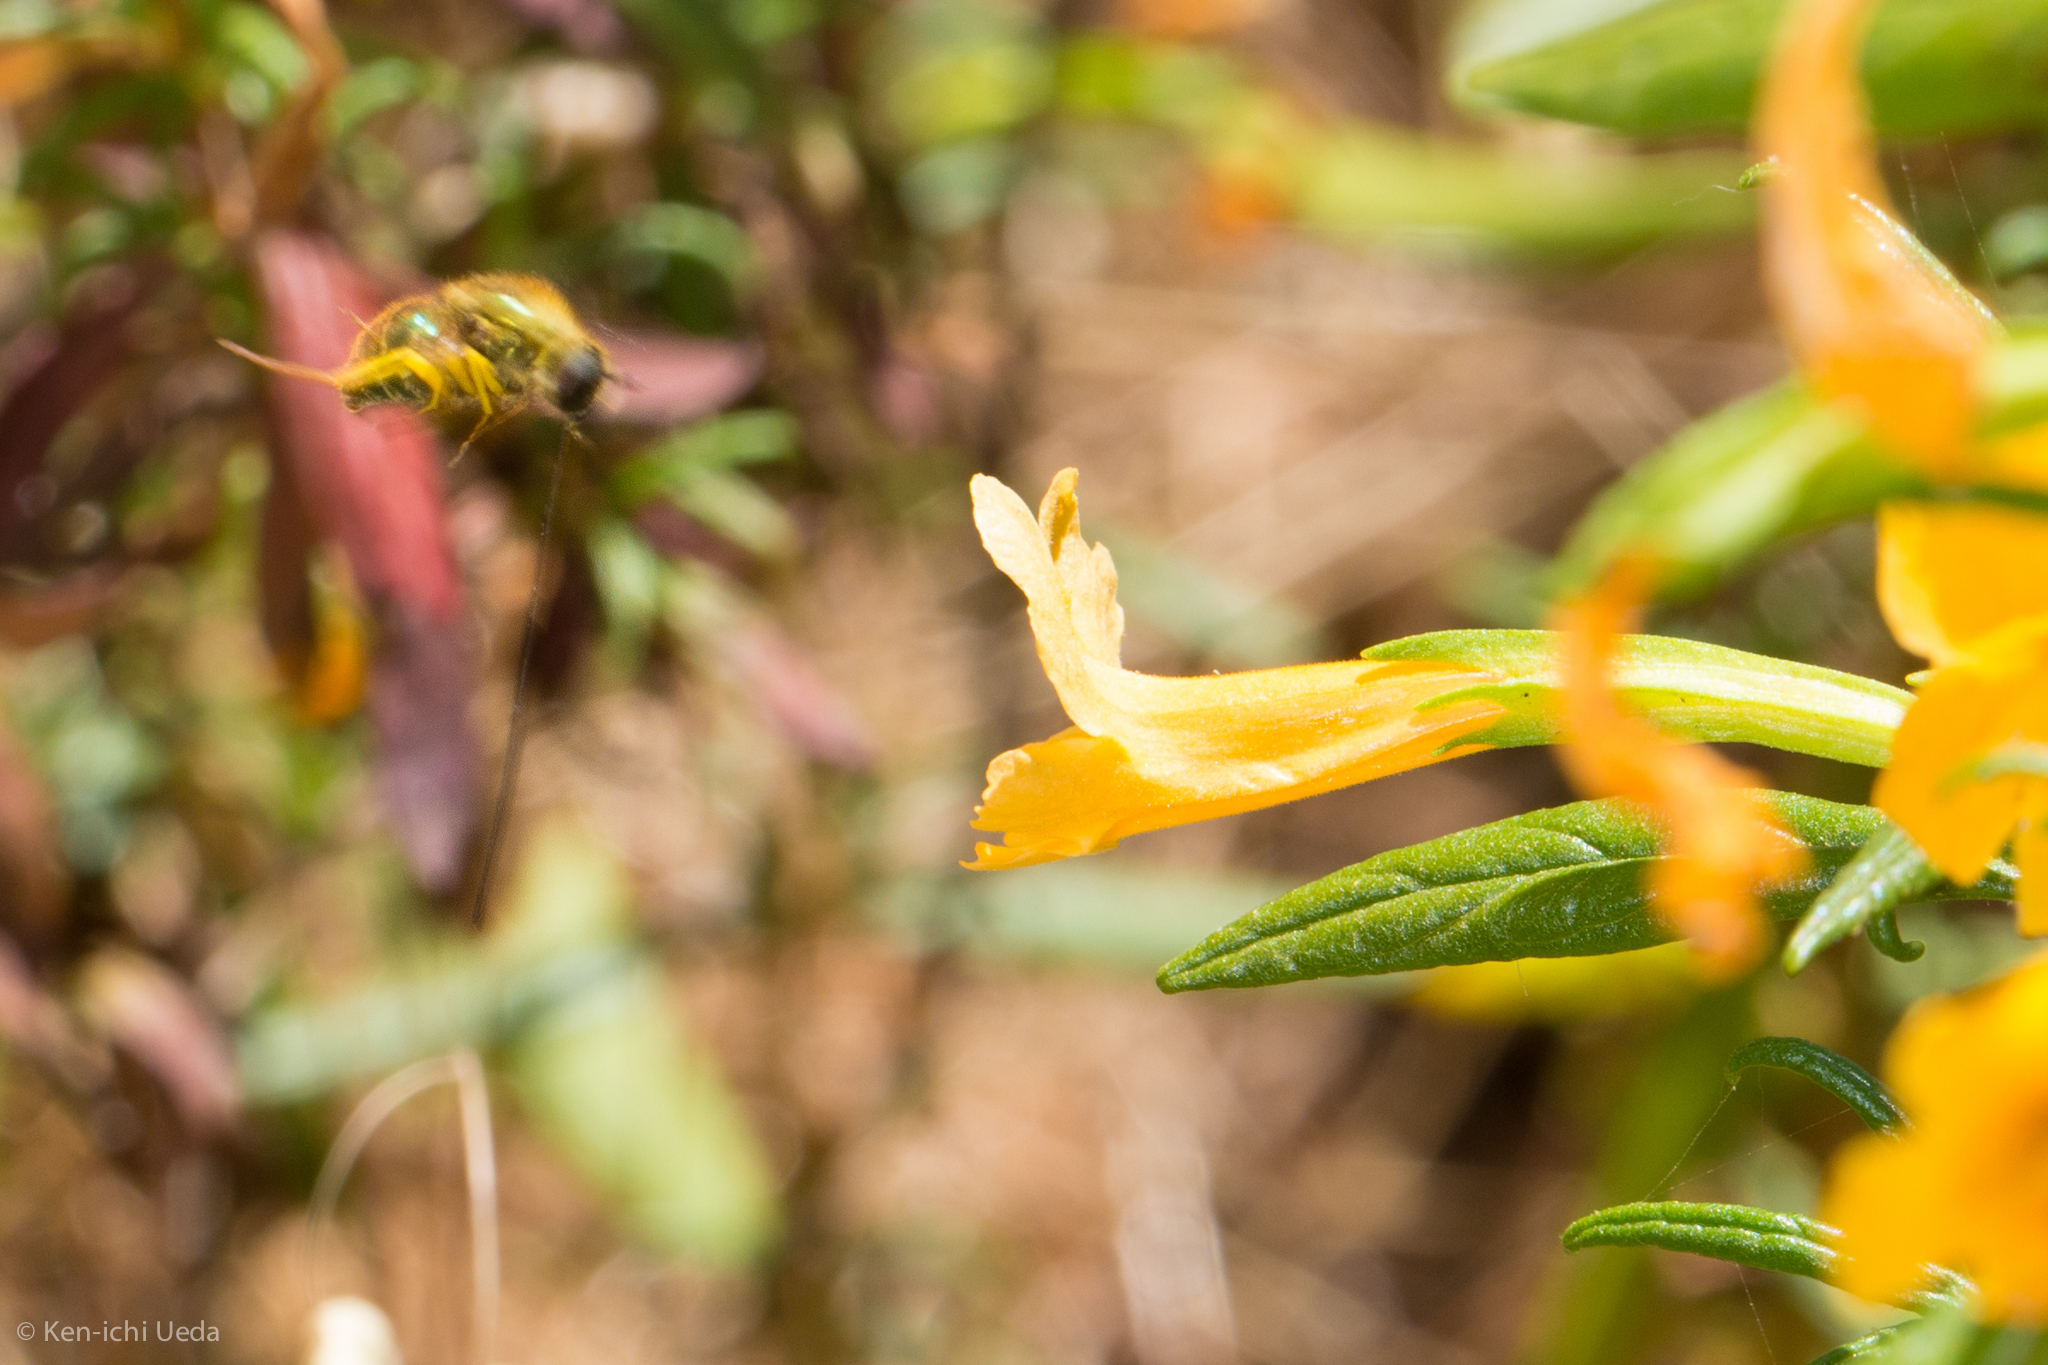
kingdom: Animalia
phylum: Arthropoda
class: Insecta
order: Diptera
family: Acroceridae
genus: Eulonchus
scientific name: Eulonchus smaragdinus
